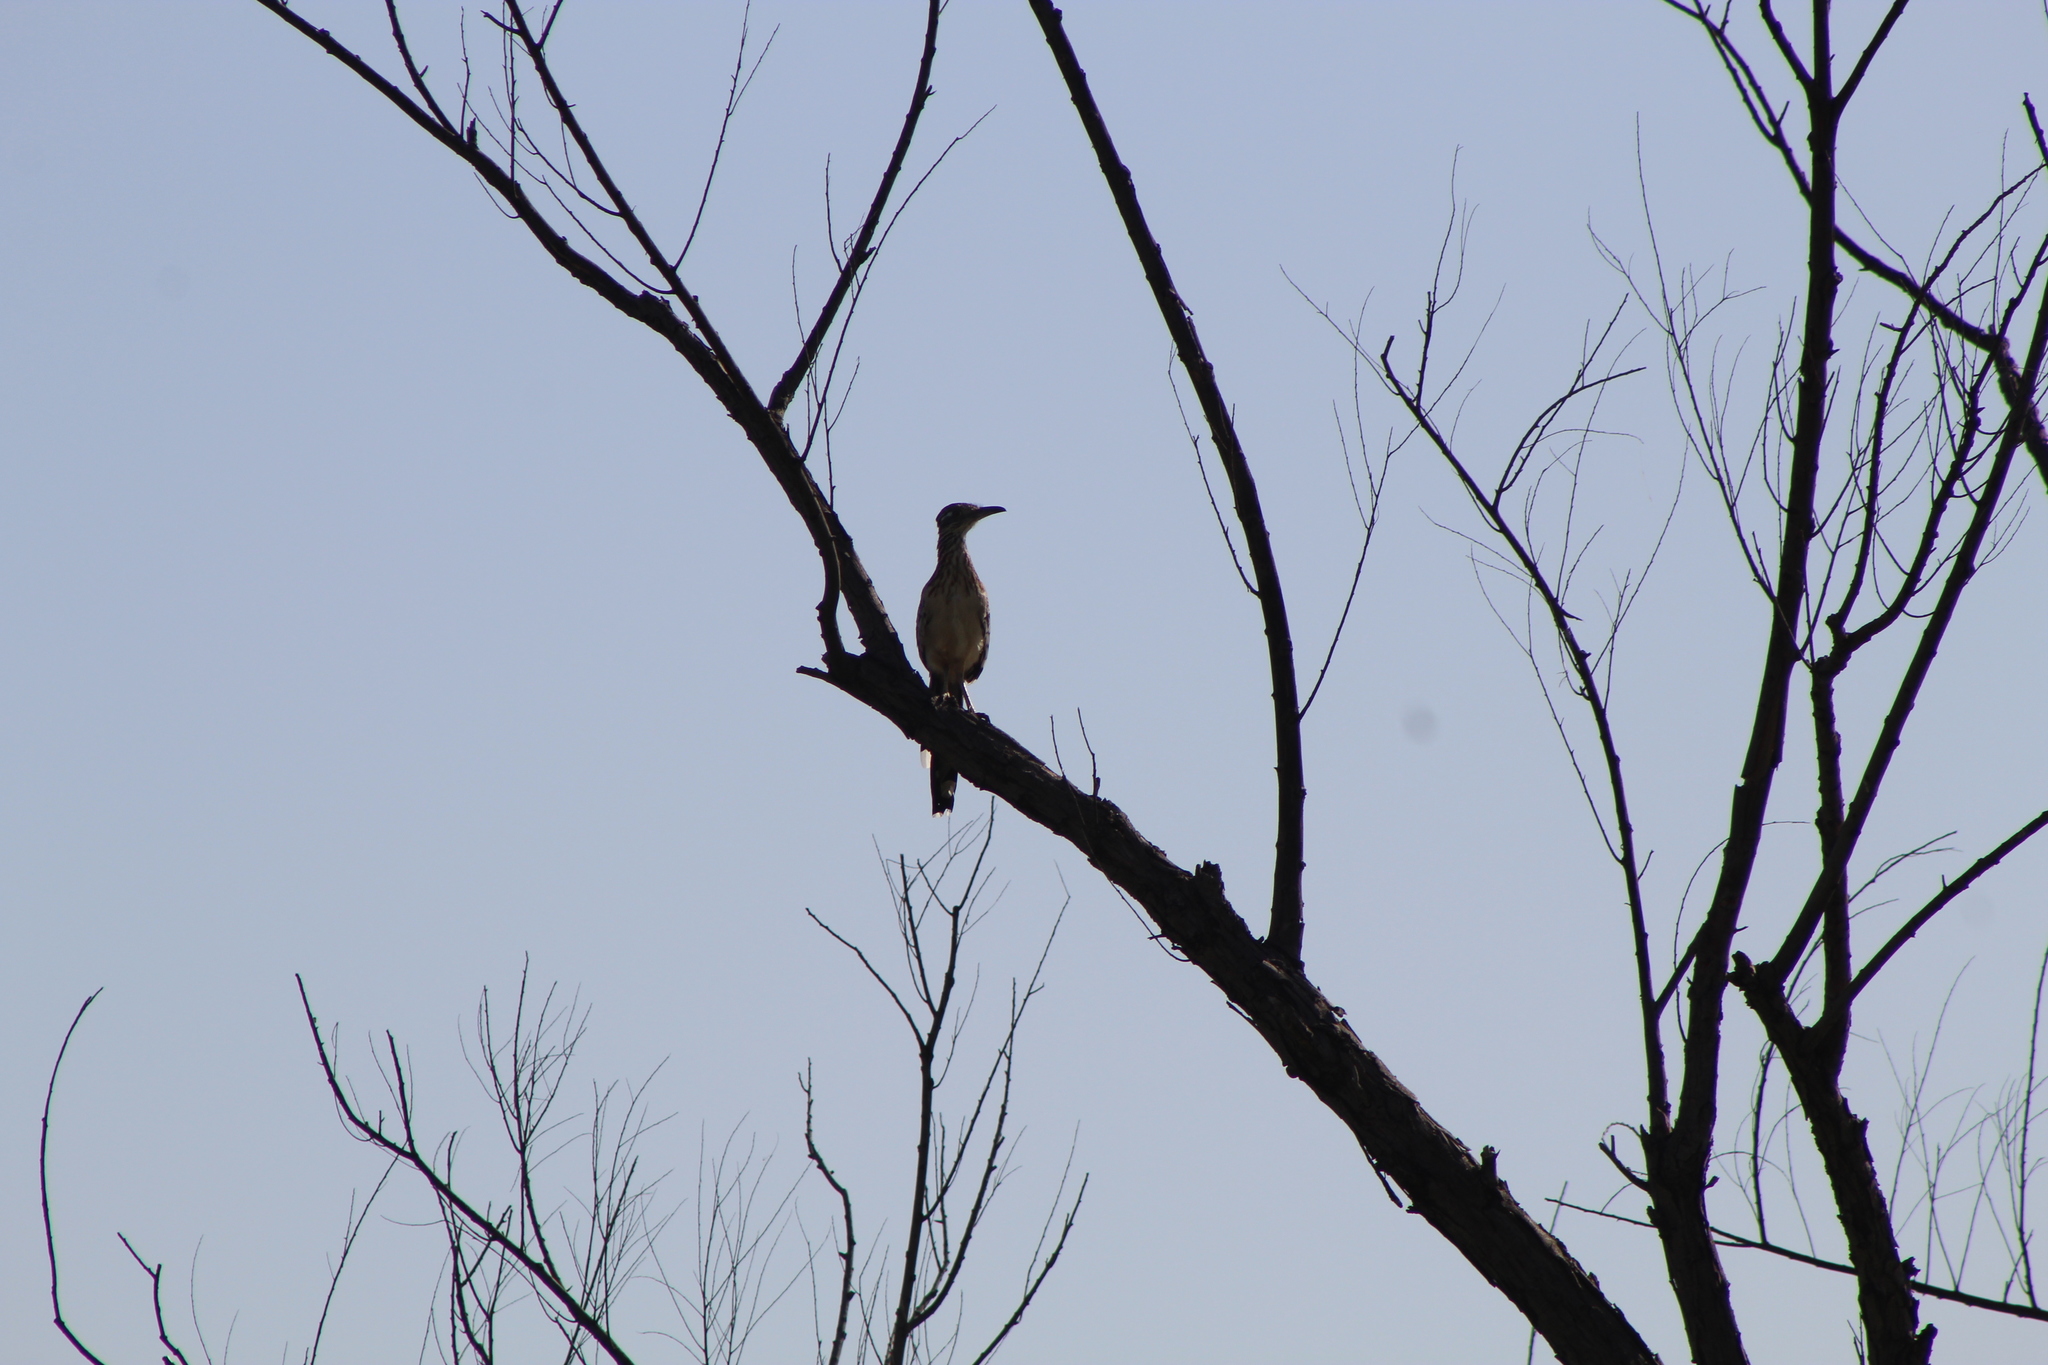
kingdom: Animalia
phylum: Chordata
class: Aves
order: Cuculiformes
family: Cuculidae
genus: Geococcyx
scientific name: Geococcyx californianus
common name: Greater roadrunner
